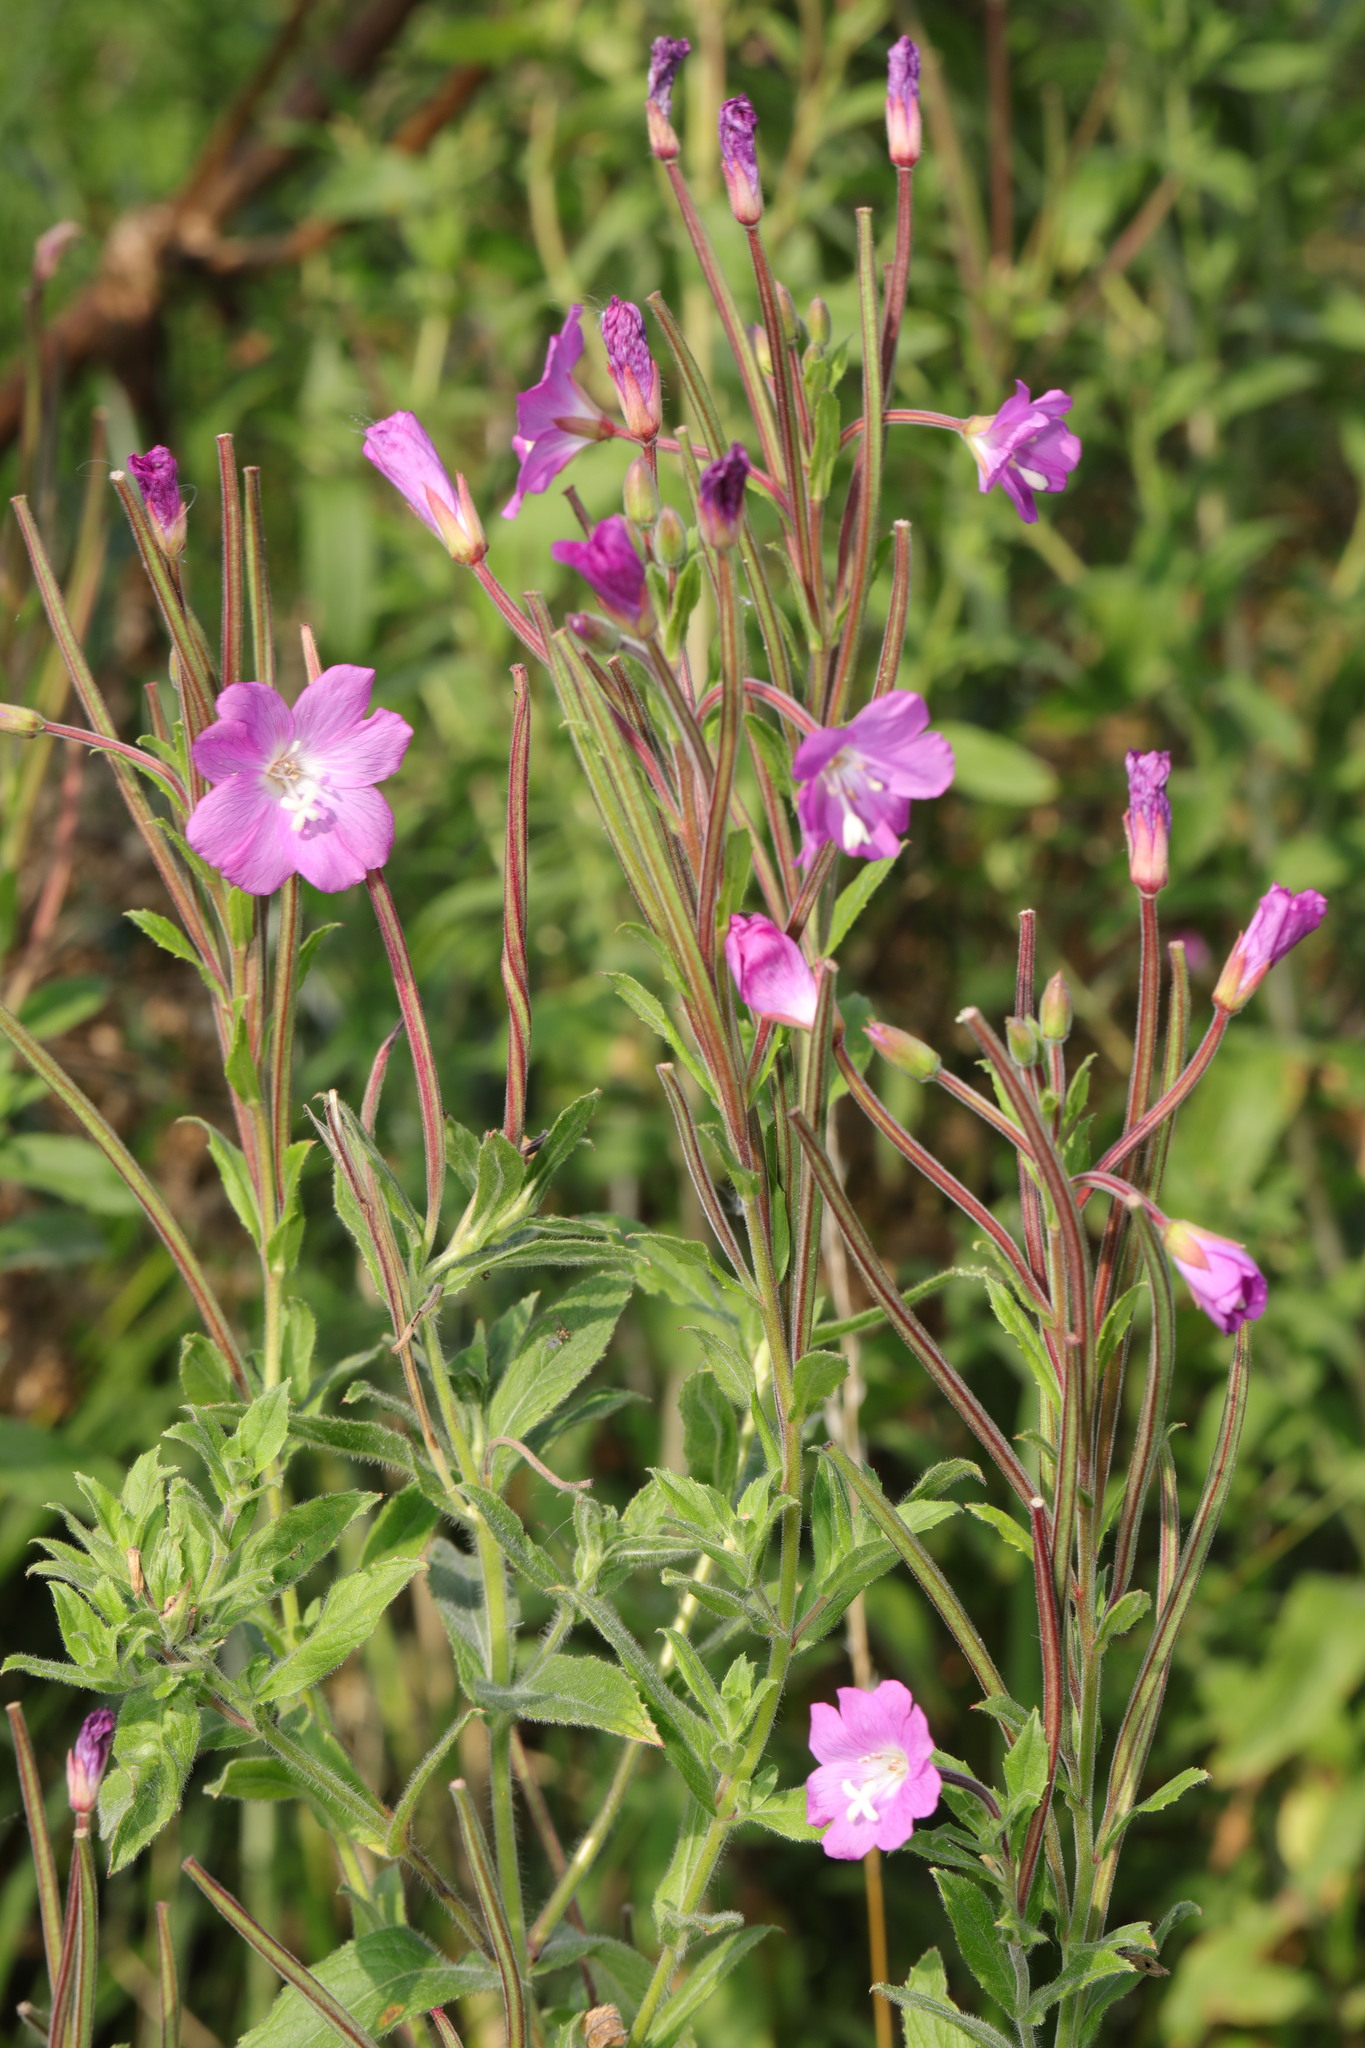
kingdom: Plantae
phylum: Tracheophyta
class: Magnoliopsida
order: Myrtales
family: Onagraceae
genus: Epilobium
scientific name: Epilobium hirsutum
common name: Great willowherb
